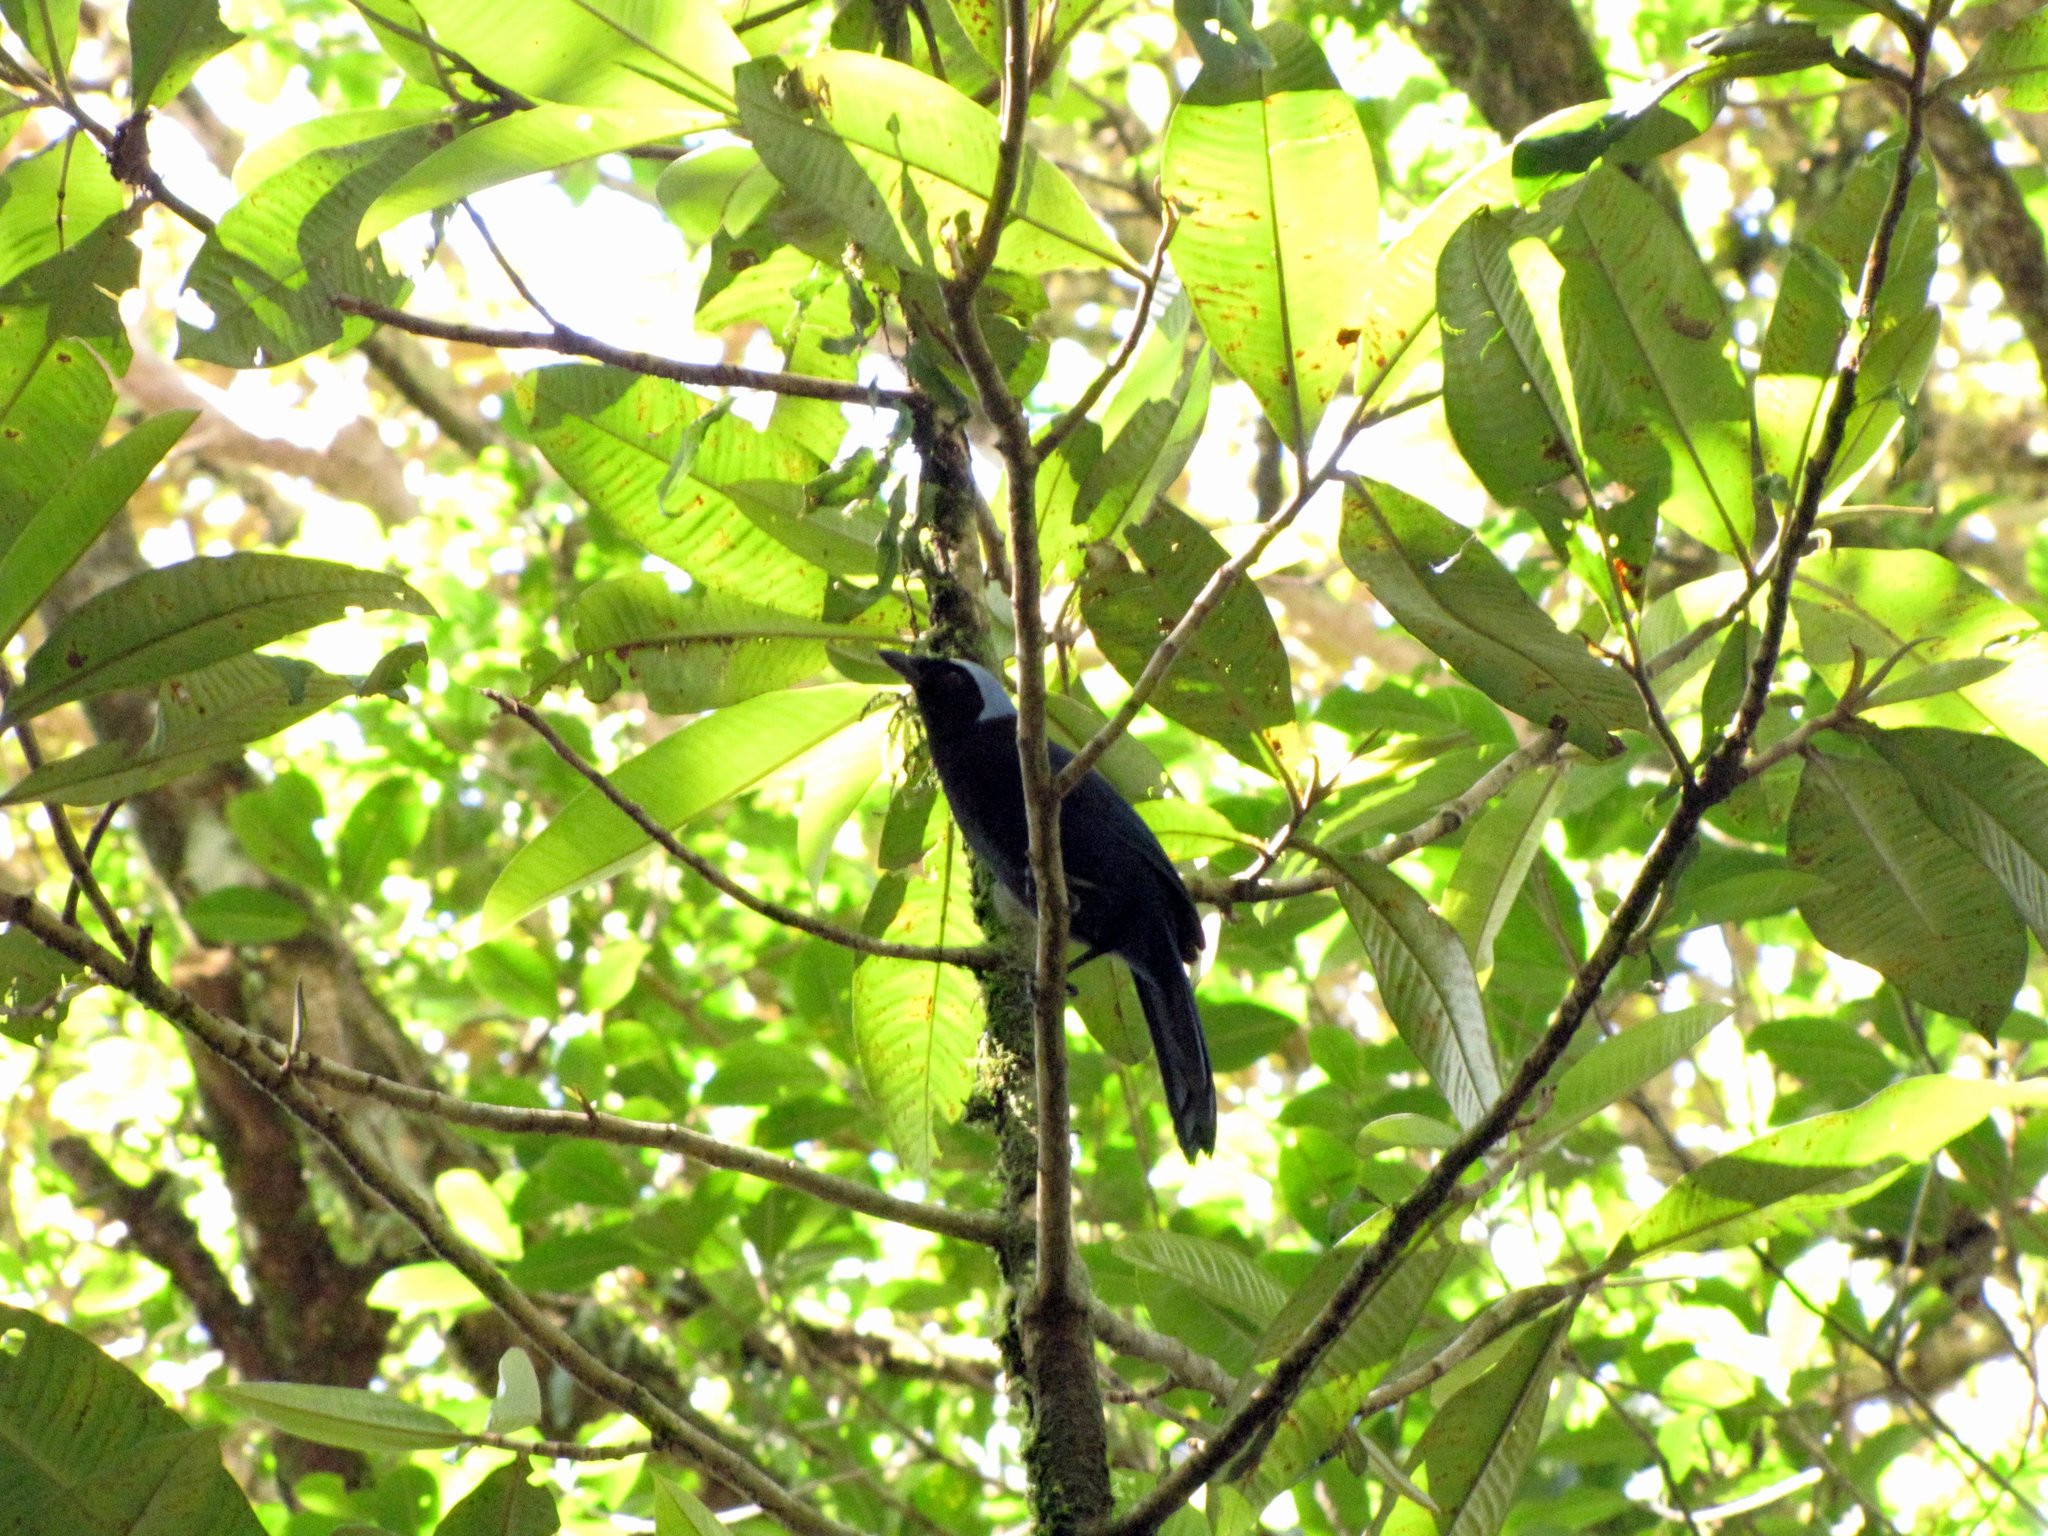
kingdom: Animalia
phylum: Chordata
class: Aves
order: Passeriformes
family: Corvidae
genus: Cyanolyca
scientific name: Cyanolyca cucullata
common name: Azure-hooded jay
